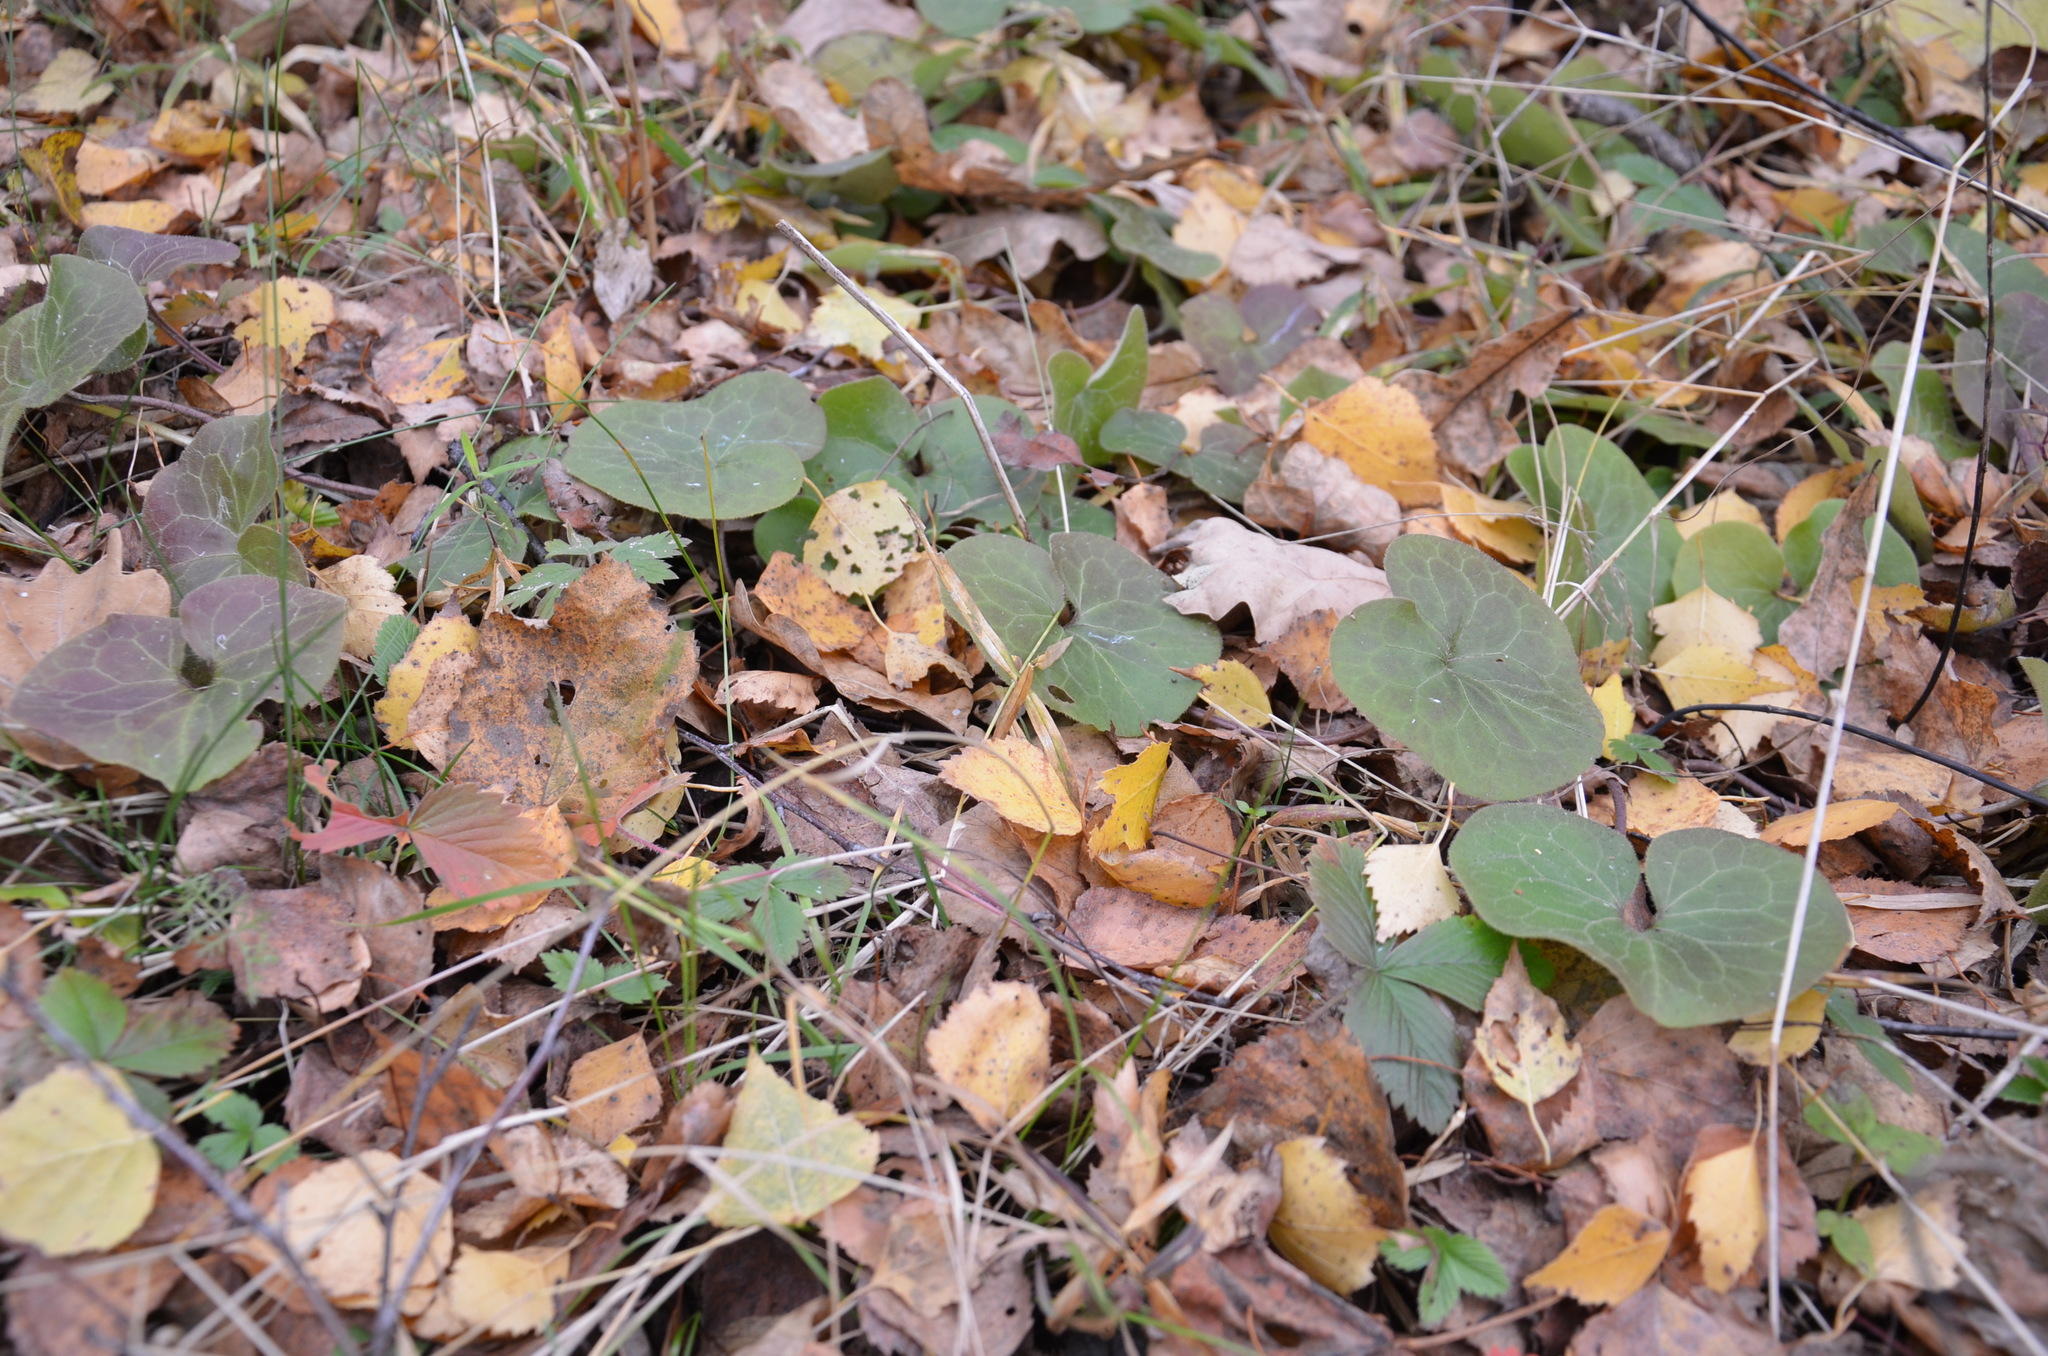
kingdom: Plantae
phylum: Tracheophyta
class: Magnoliopsida
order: Piperales
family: Aristolochiaceae
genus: Asarum
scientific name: Asarum europaeum
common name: Asarabacca
